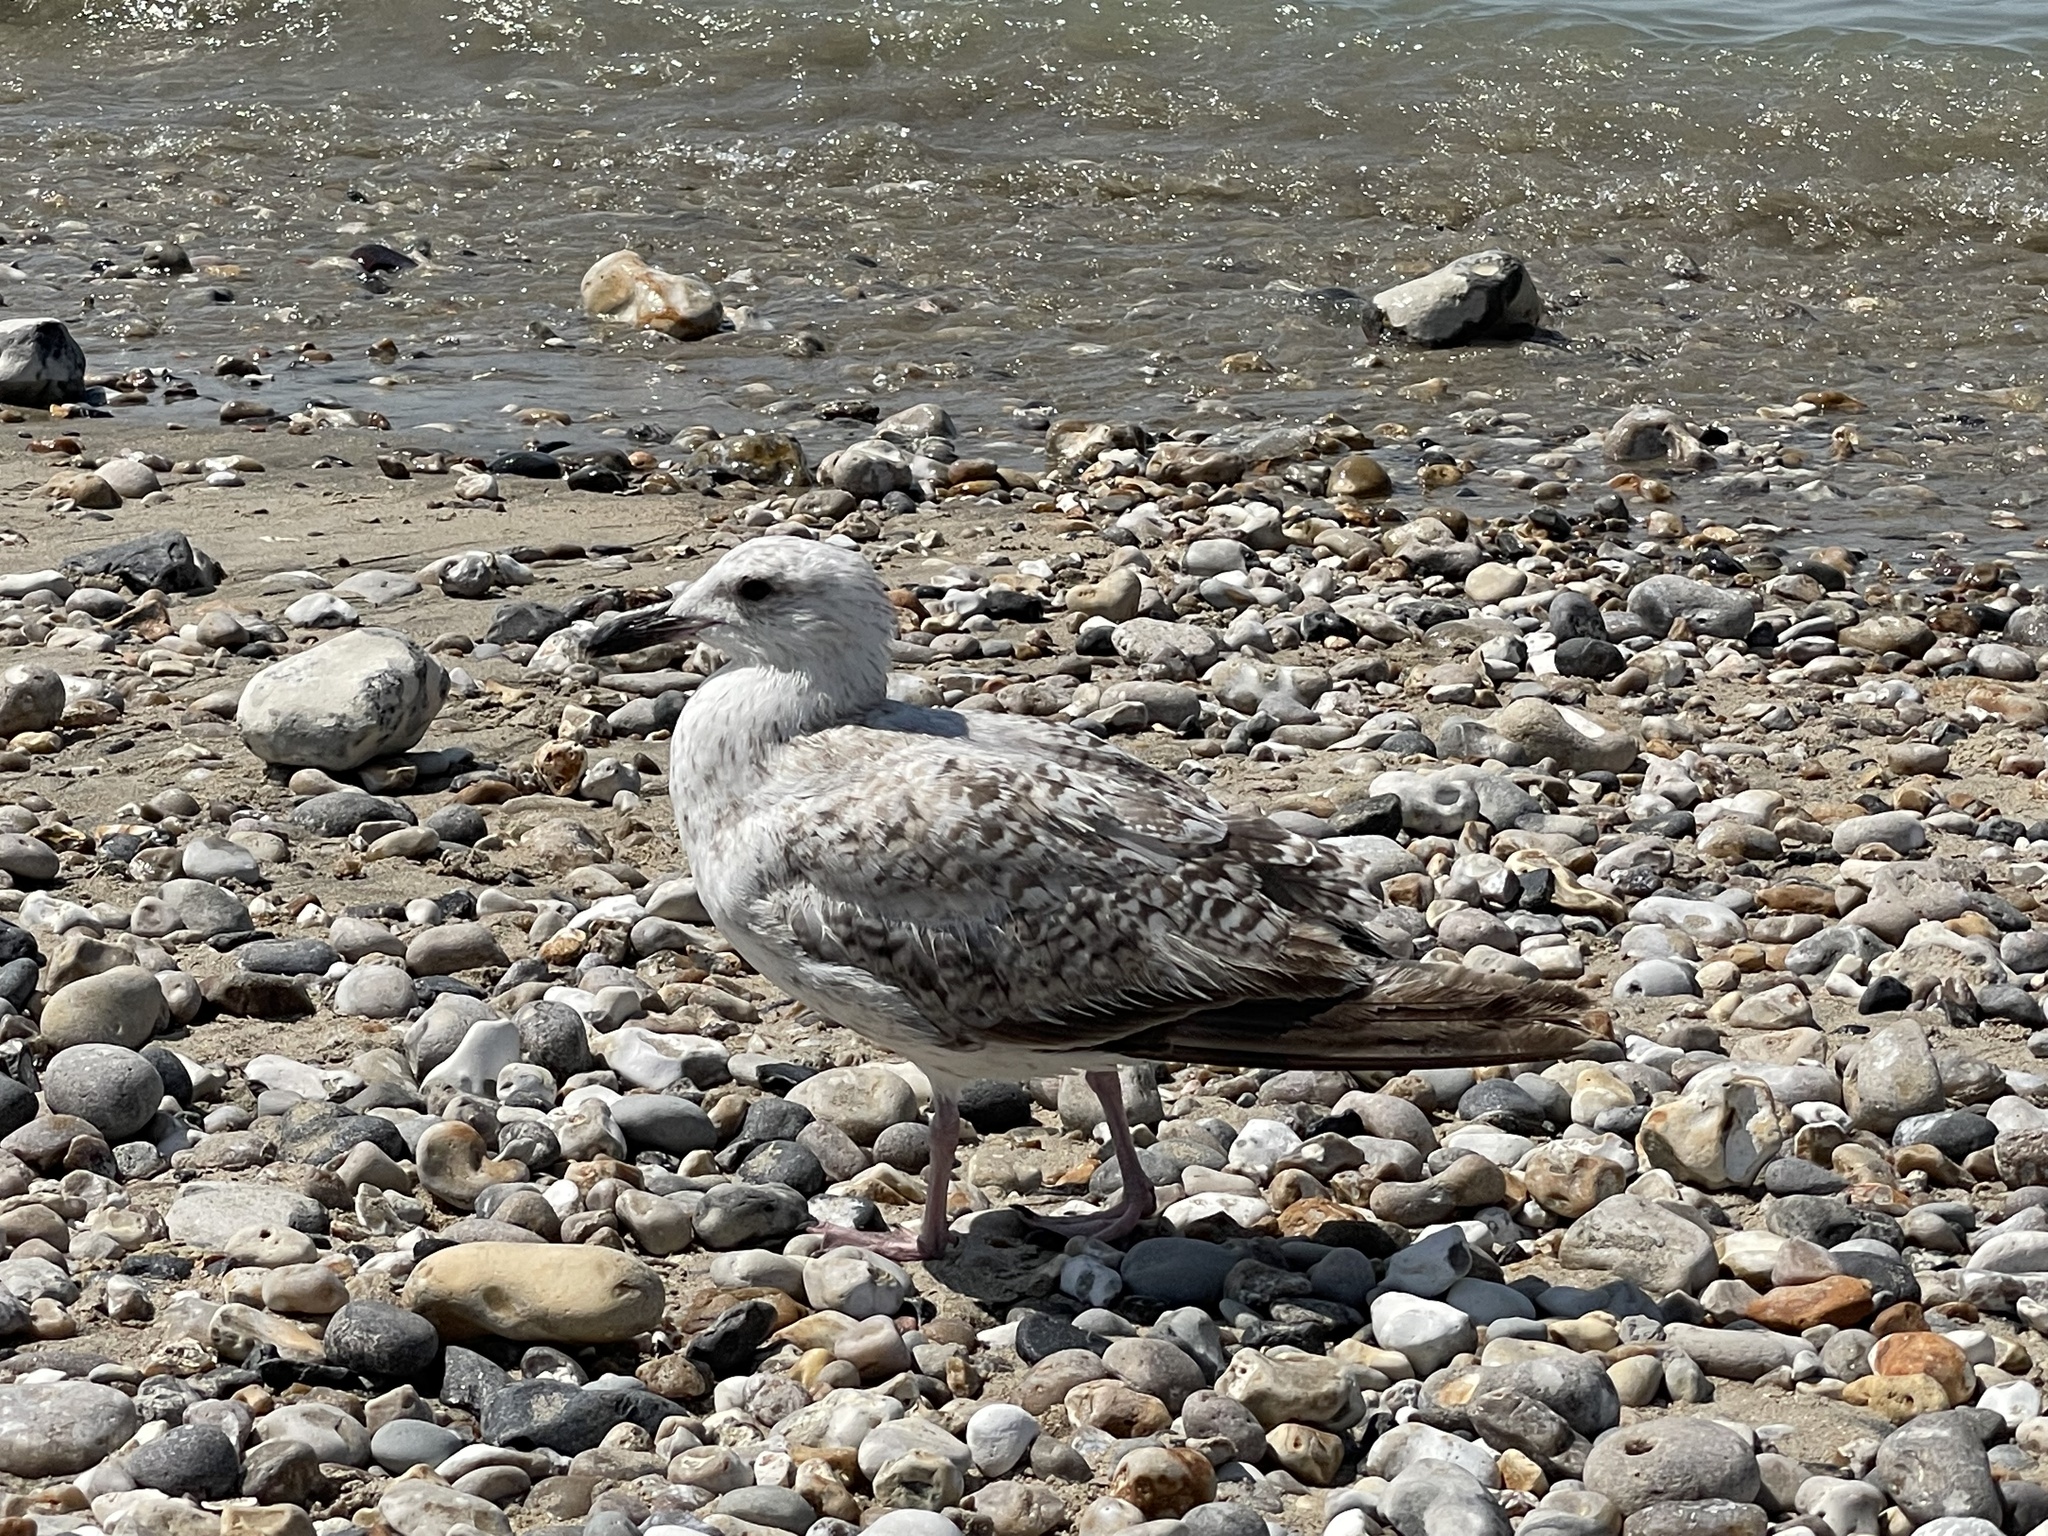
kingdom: Animalia
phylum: Chordata
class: Aves
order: Charadriiformes
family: Laridae
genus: Larus
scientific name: Larus argentatus
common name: Herring gull
